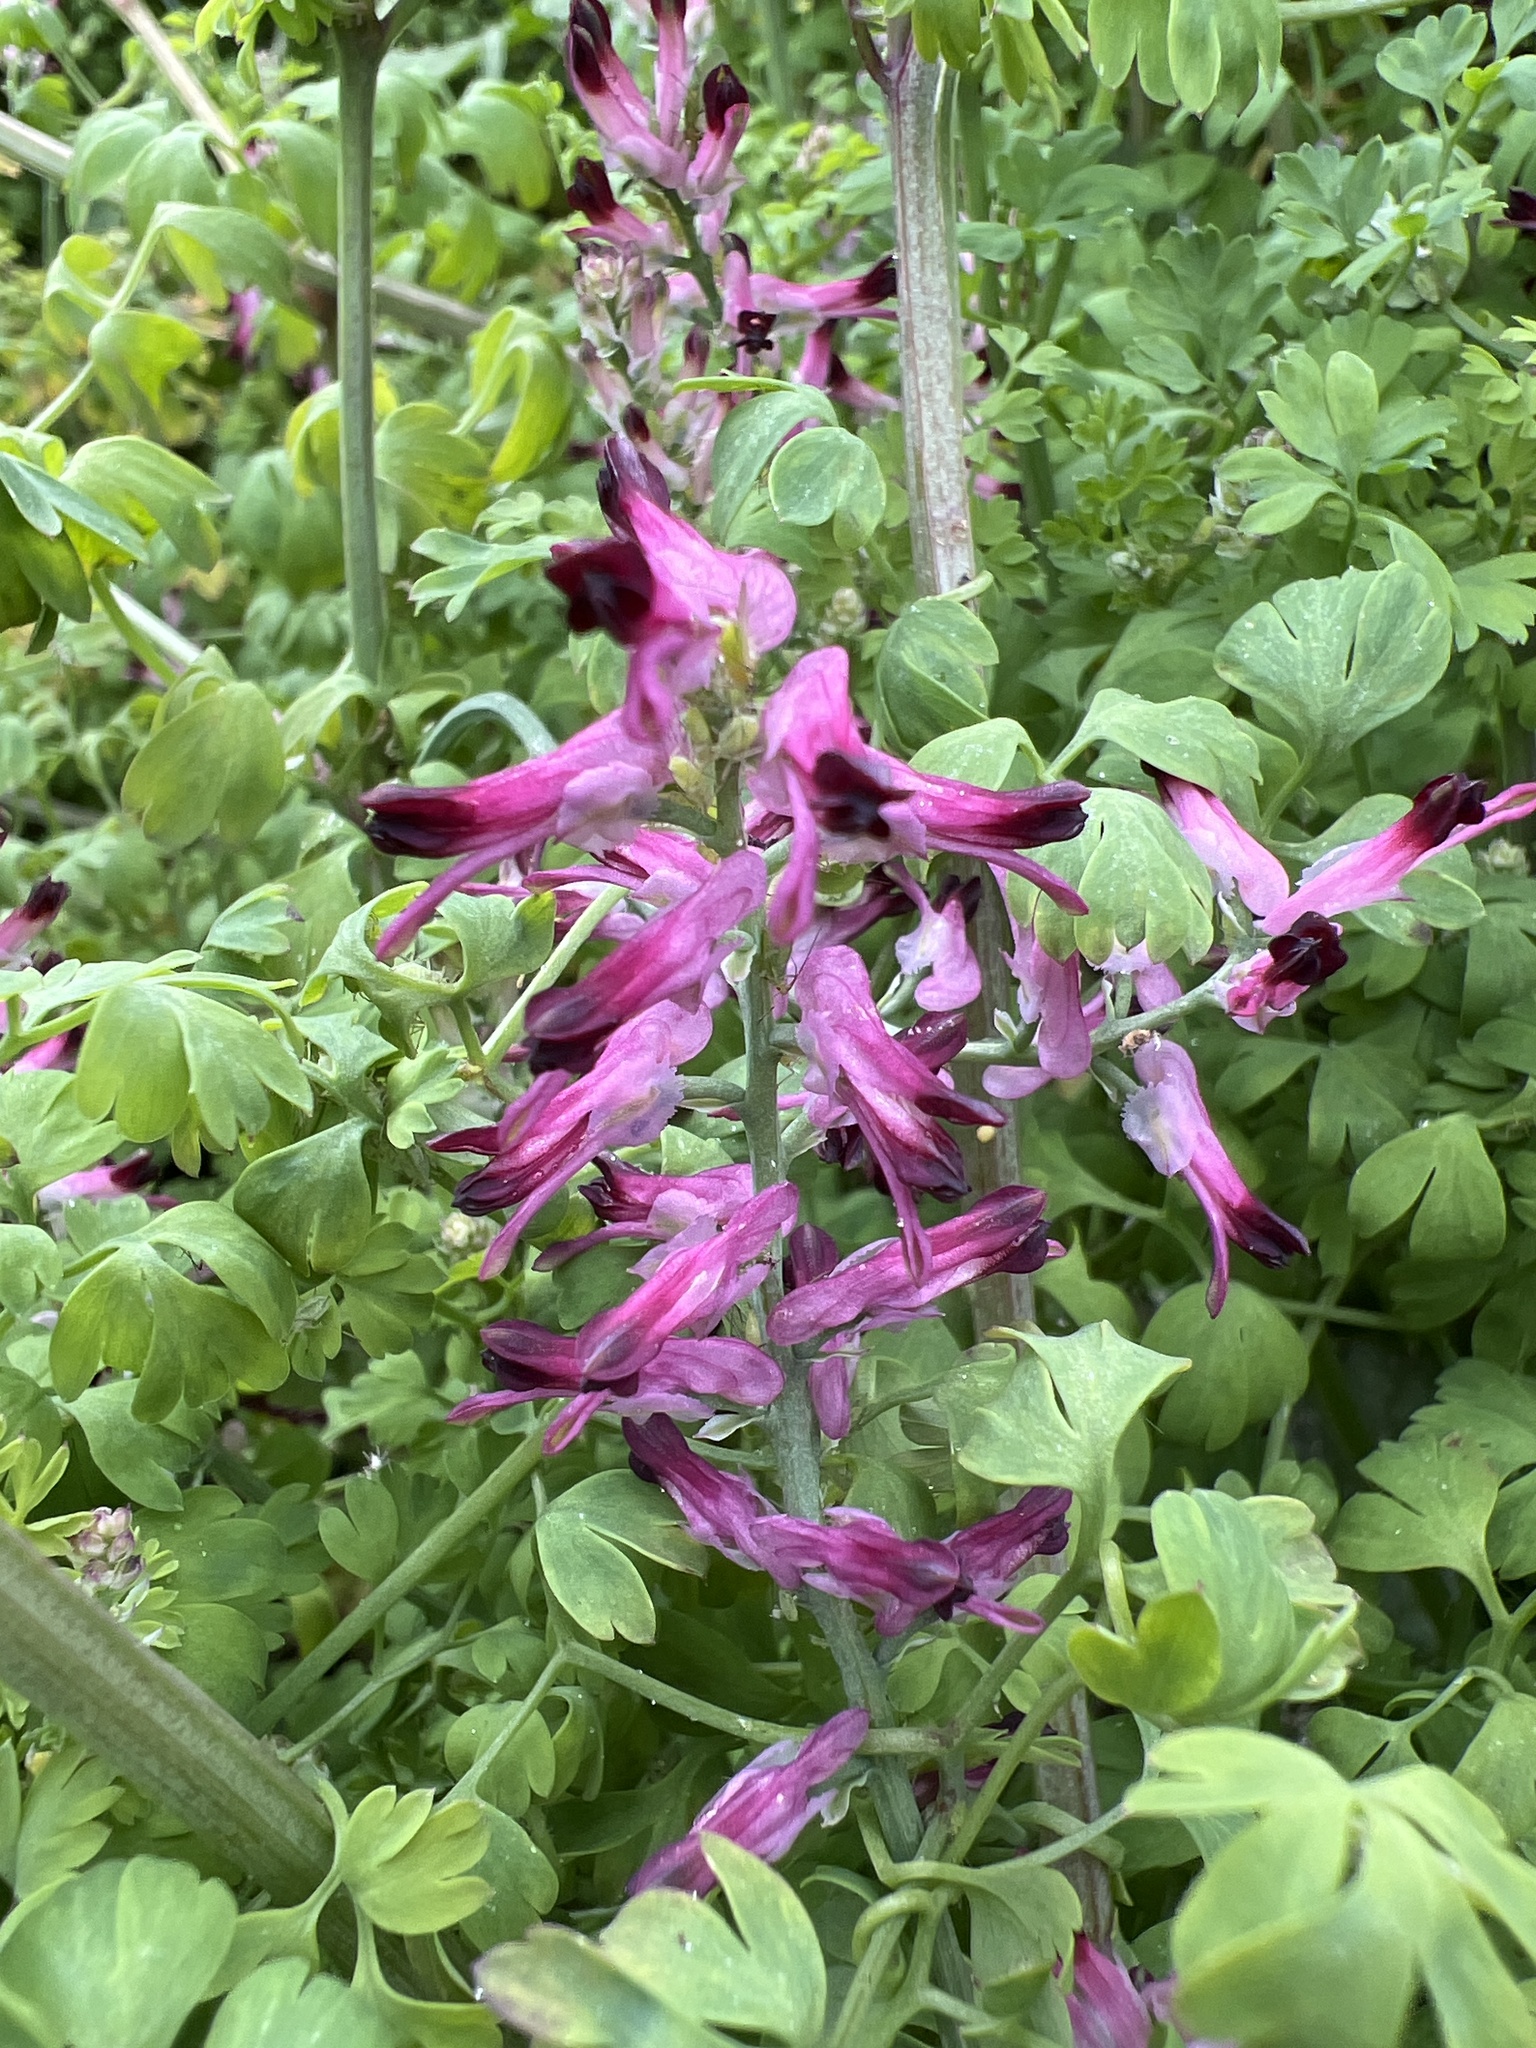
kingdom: Plantae
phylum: Tracheophyta
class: Magnoliopsida
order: Ranunculales
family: Papaveraceae
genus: Fumaria
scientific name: Fumaria muralis
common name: Common ramping-fumitory
